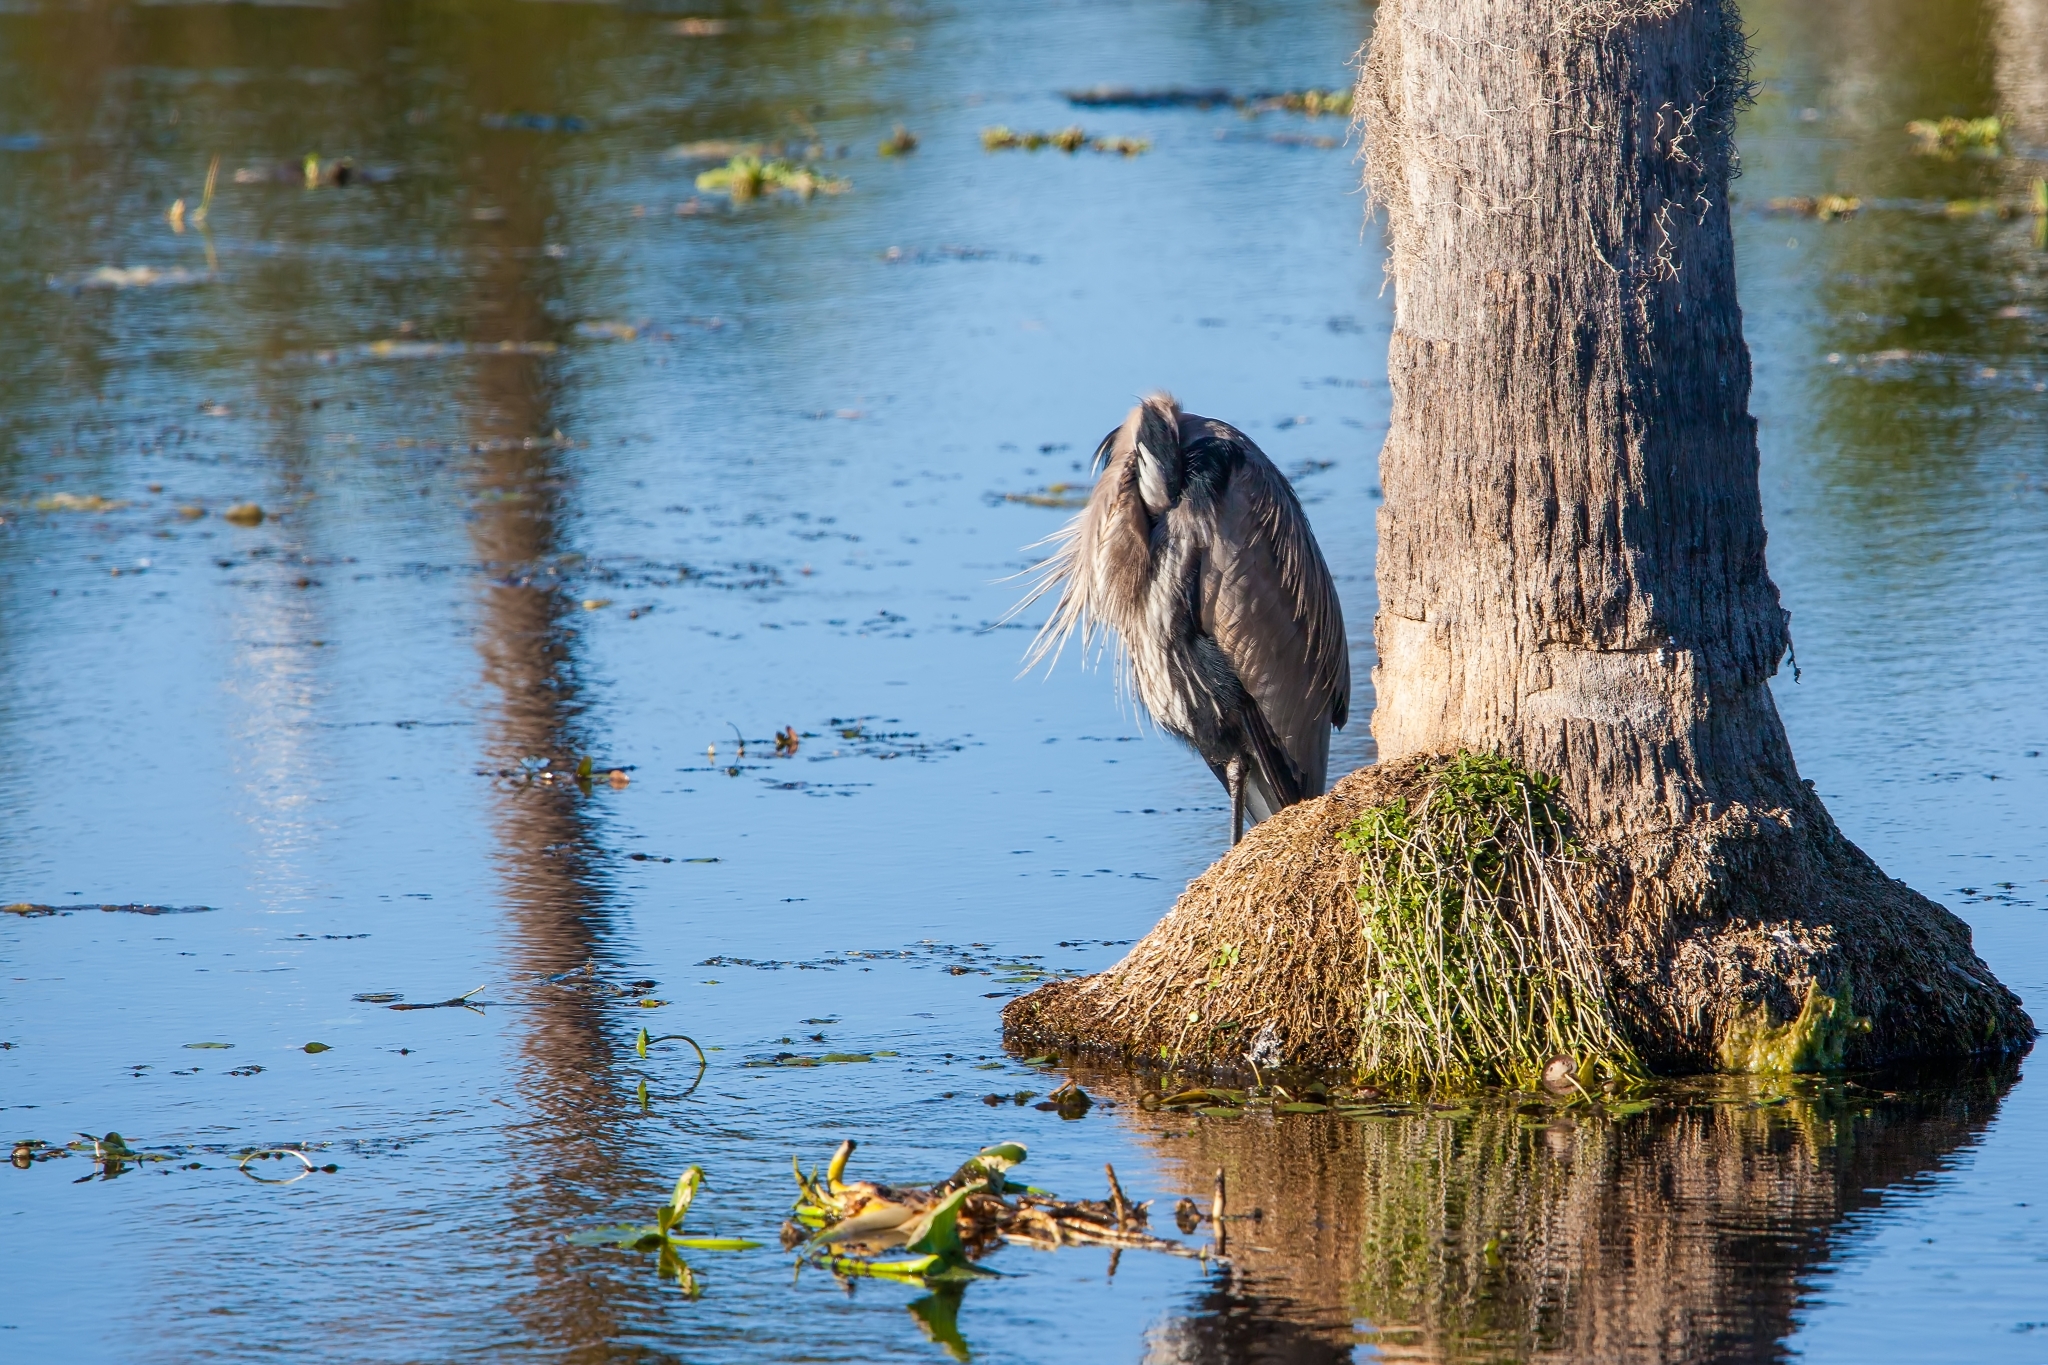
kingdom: Animalia
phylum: Chordata
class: Aves
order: Pelecaniformes
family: Ardeidae
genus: Ardea
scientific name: Ardea herodias
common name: Great blue heron
